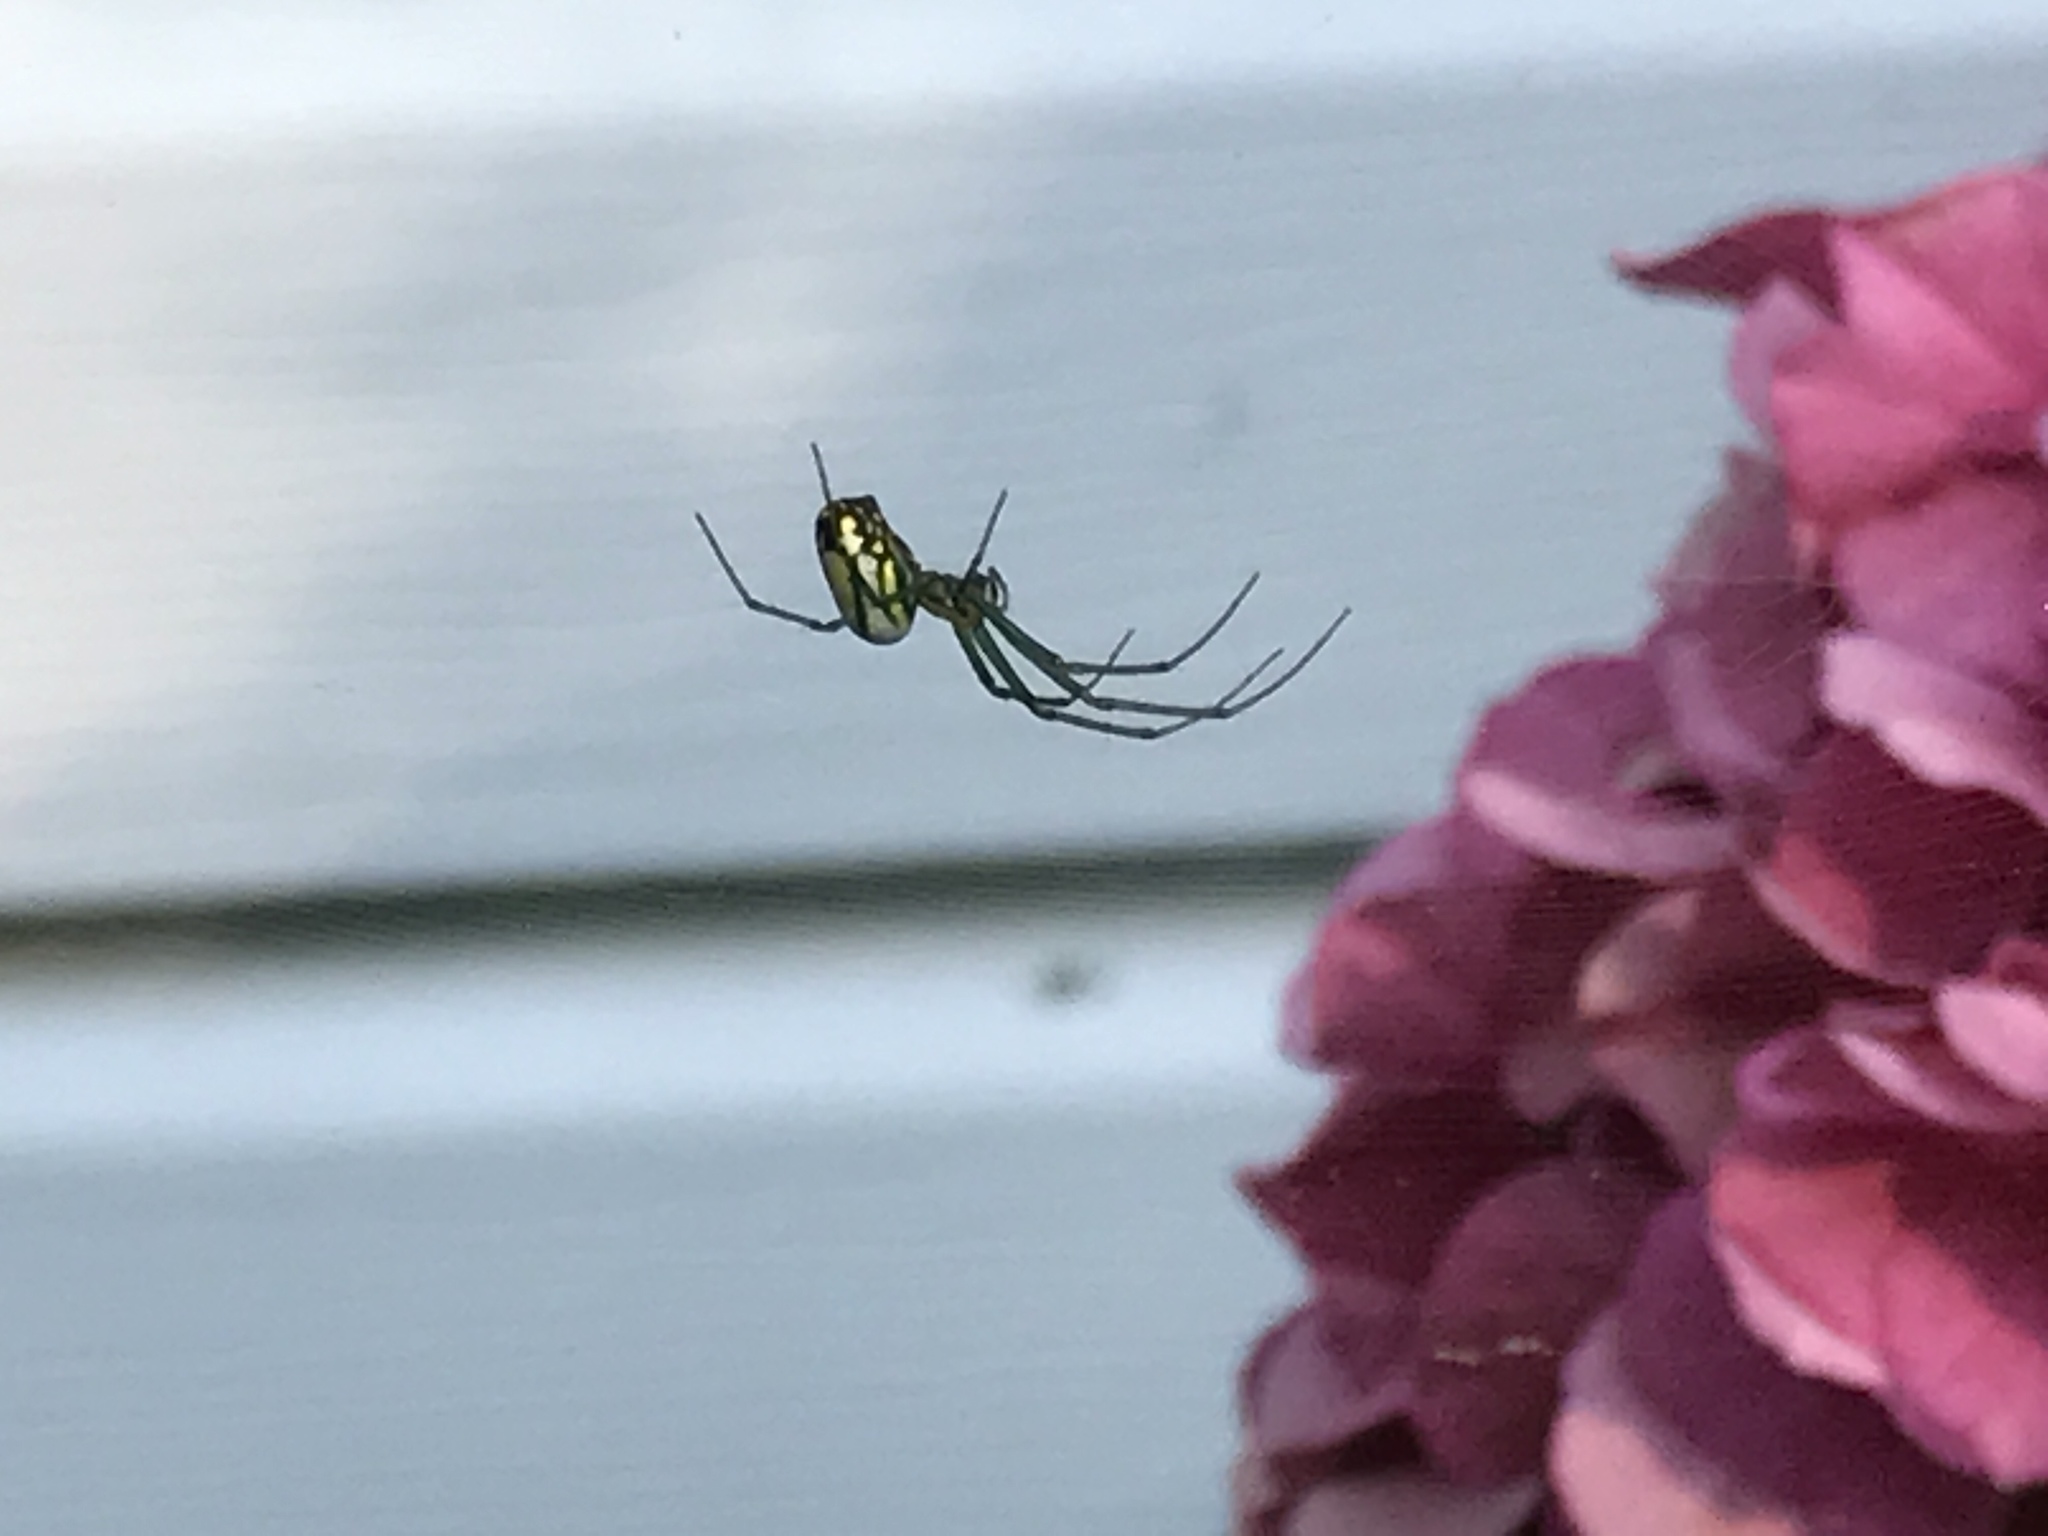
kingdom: Animalia
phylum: Arthropoda
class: Arachnida
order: Araneae
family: Tetragnathidae
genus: Leucauge
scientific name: Leucauge venusta
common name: Longjawed orb weavers
